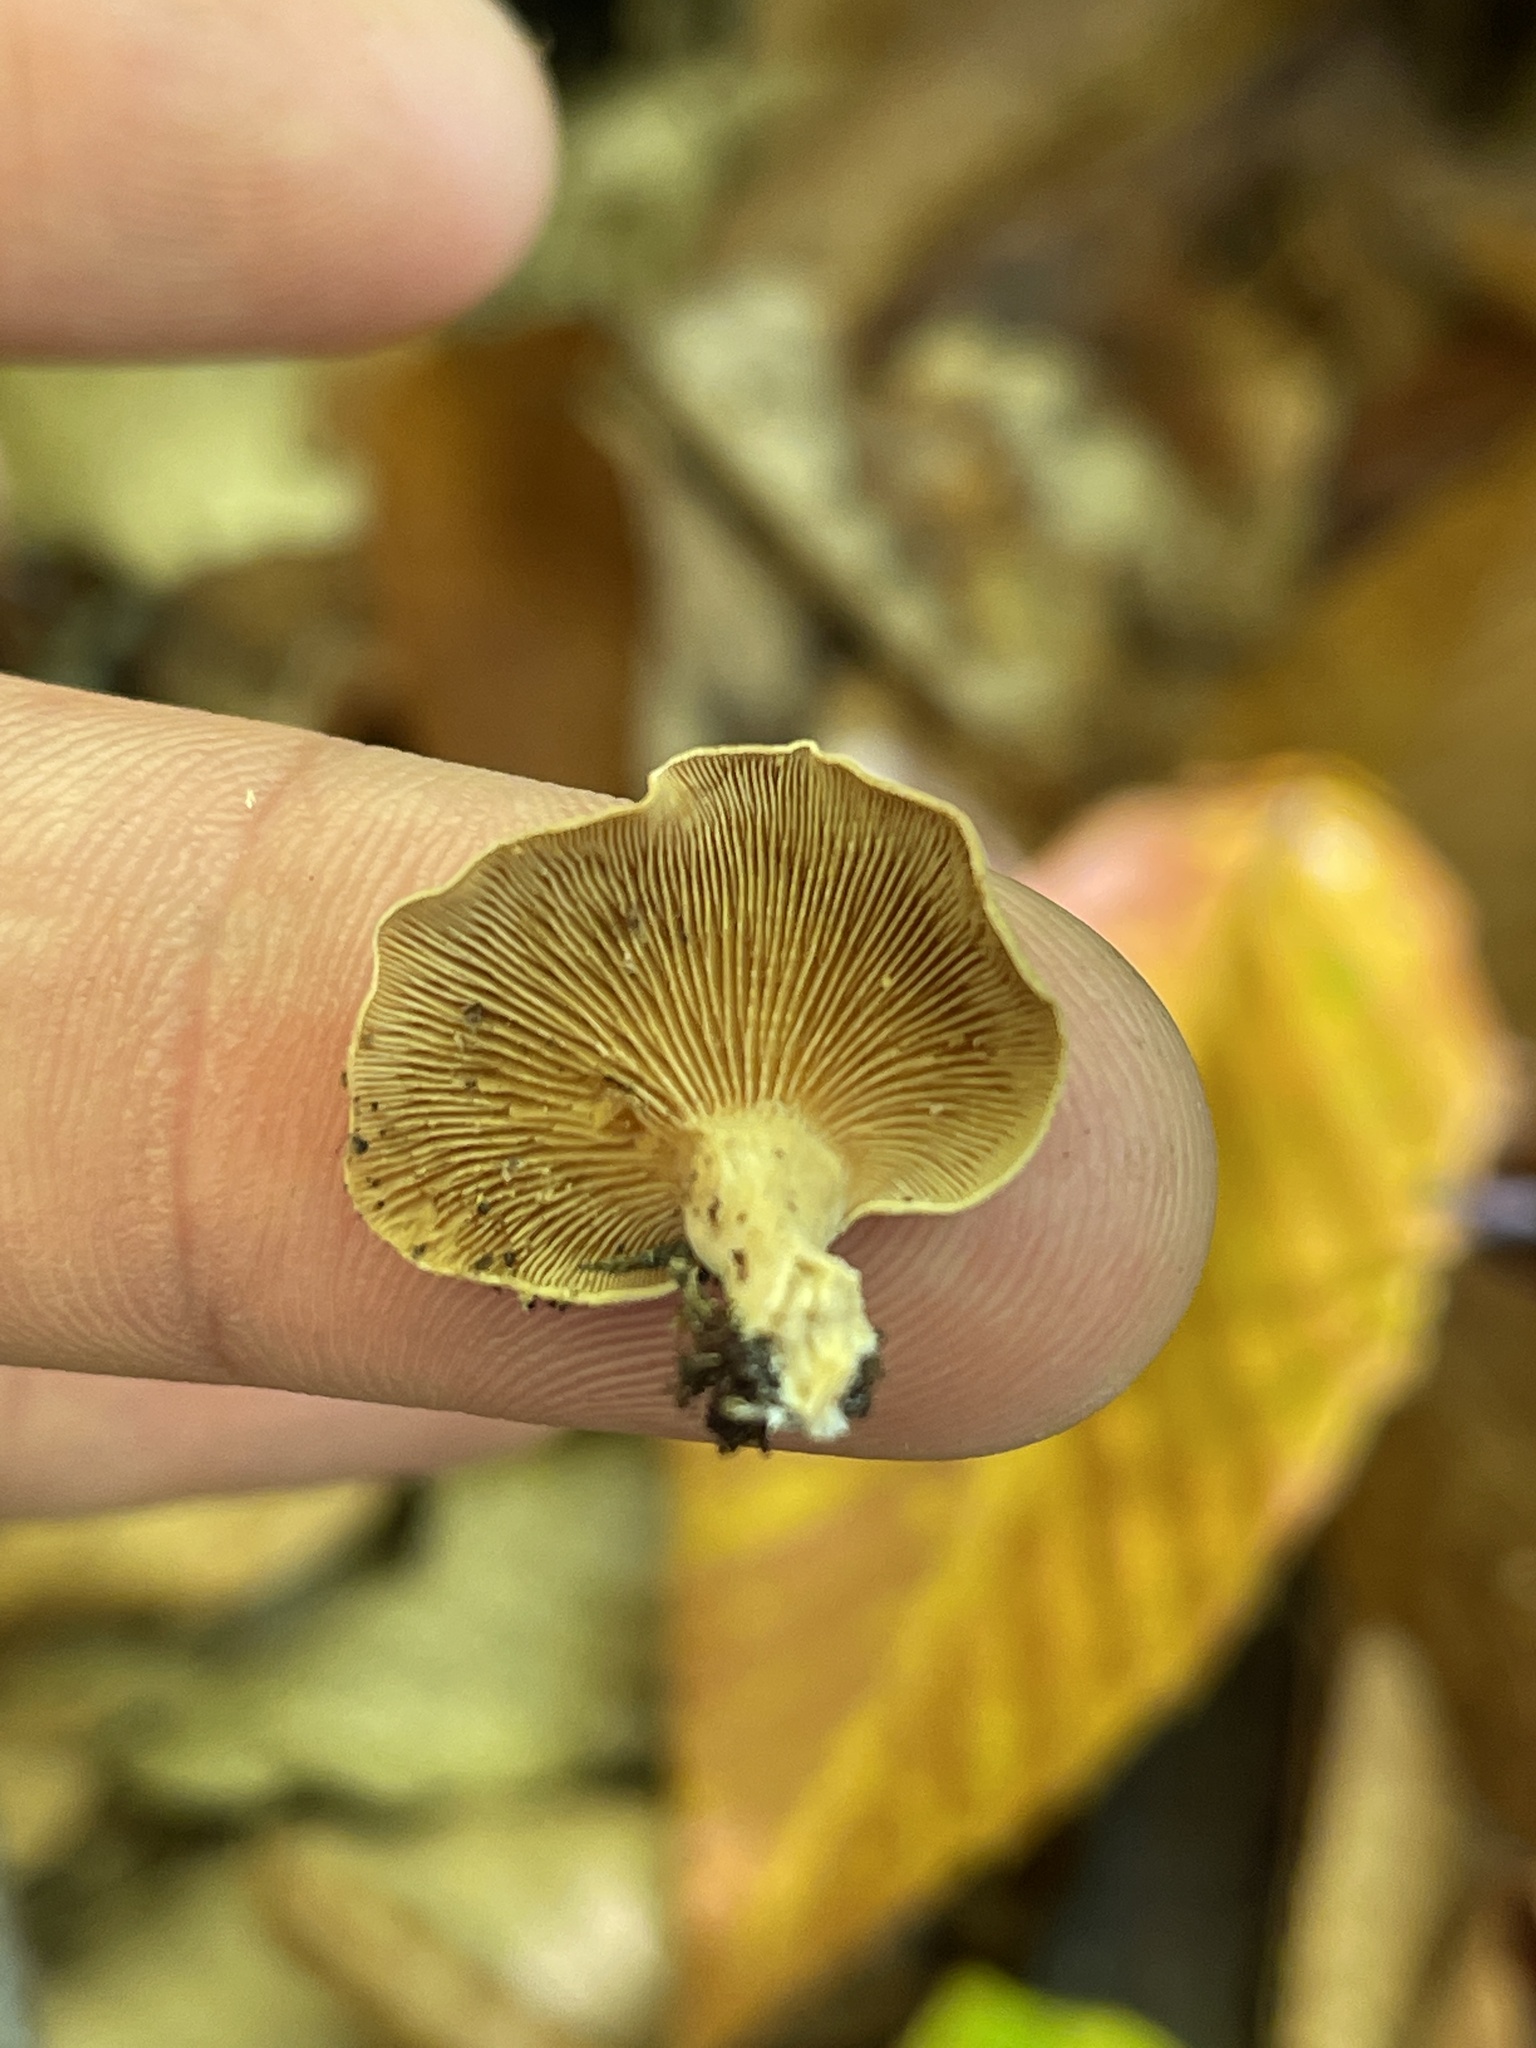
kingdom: Fungi
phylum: Basidiomycota
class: Agaricomycetes
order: Agaricales
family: Mycenaceae
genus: Panellus
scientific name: Panellus stipticus
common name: Bitter oysterling
